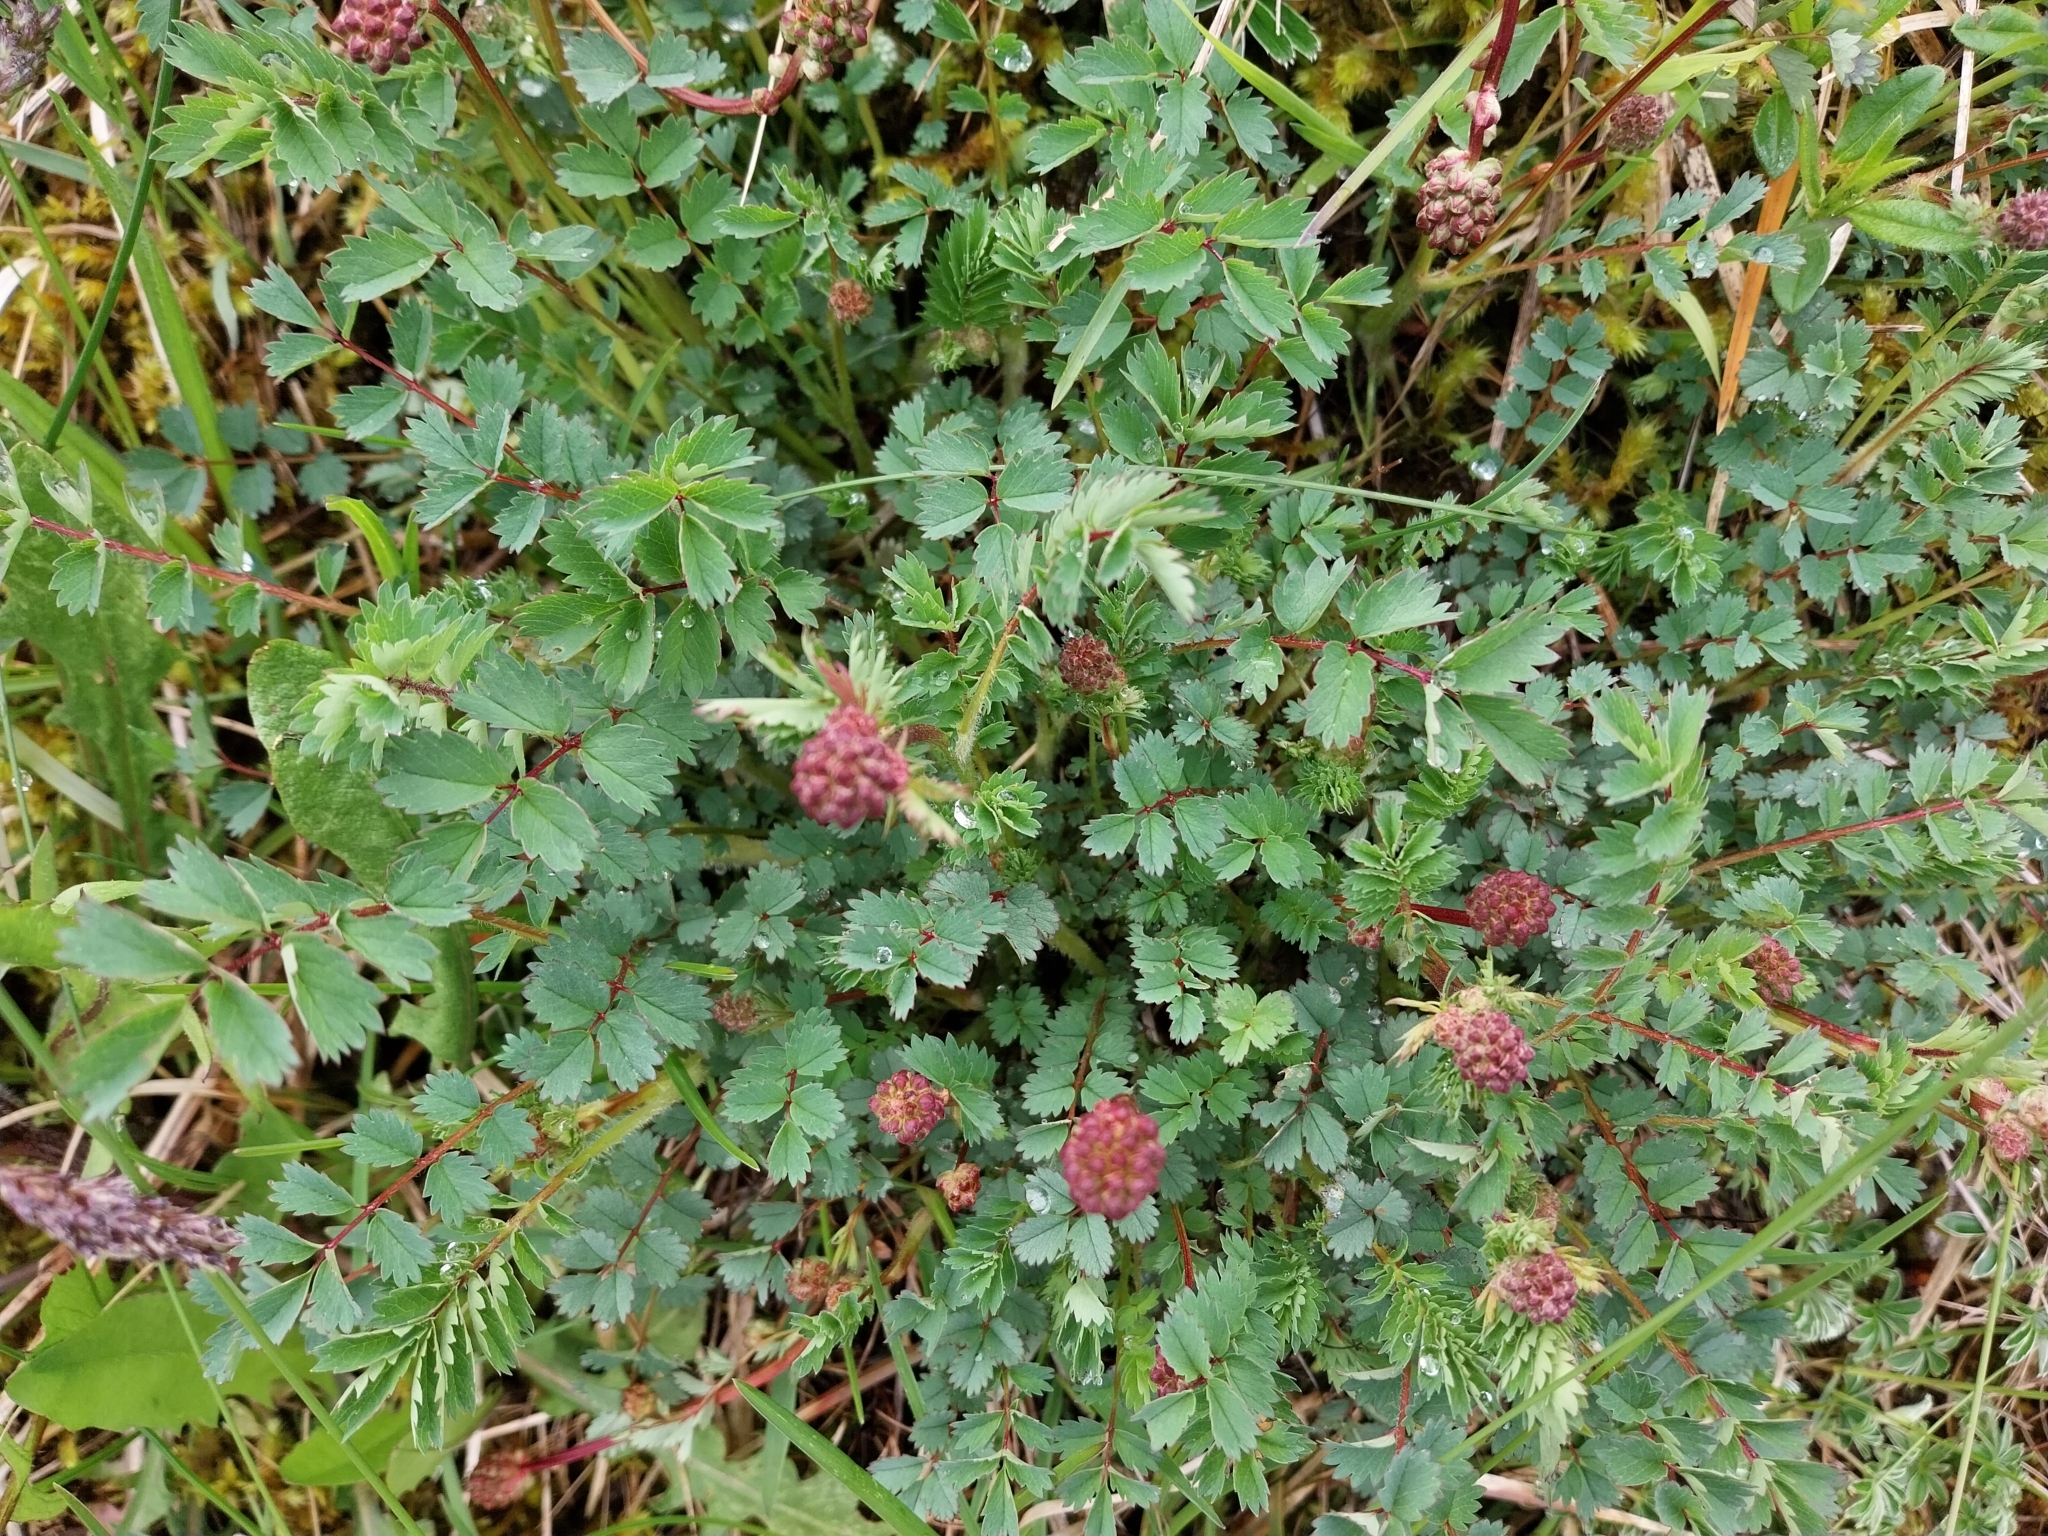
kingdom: Plantae
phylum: Tracheophyta
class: Magnoliopsida
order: Rosales
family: Rosaceae
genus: Poterium
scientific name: Poterium sanguisorba
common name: Salad burnet
